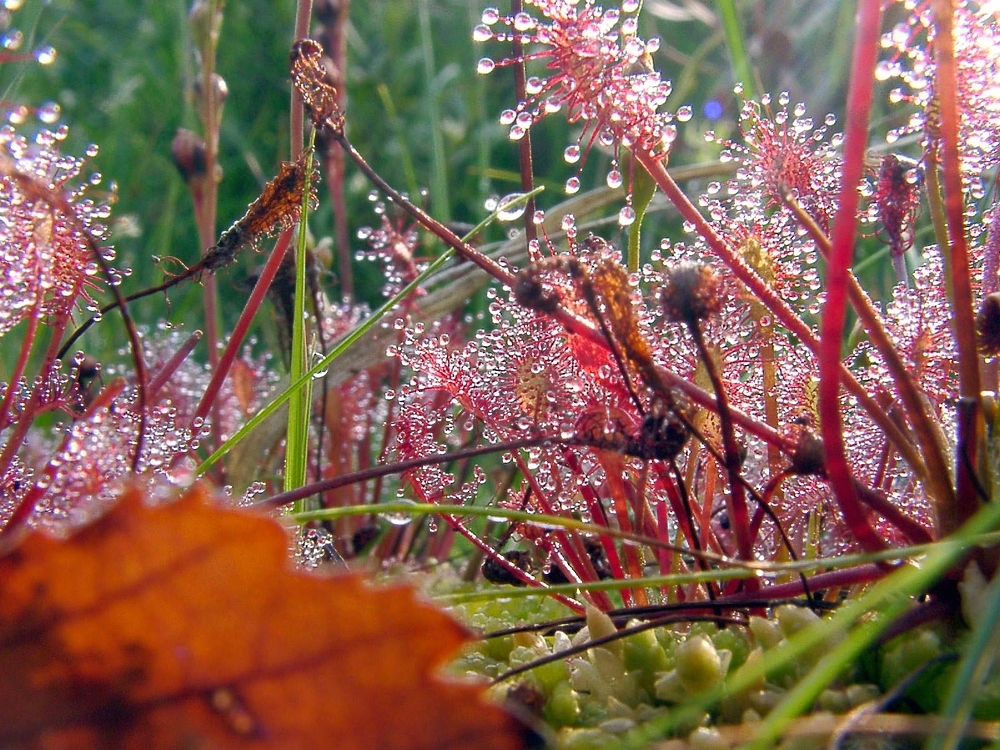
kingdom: Plantae
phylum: Tracheophyta
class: Magnoliopsida
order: Caryophyllales
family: Droseraceae
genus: Drosera
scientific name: Drosera intermedia
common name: Oblong-leaved sundew
